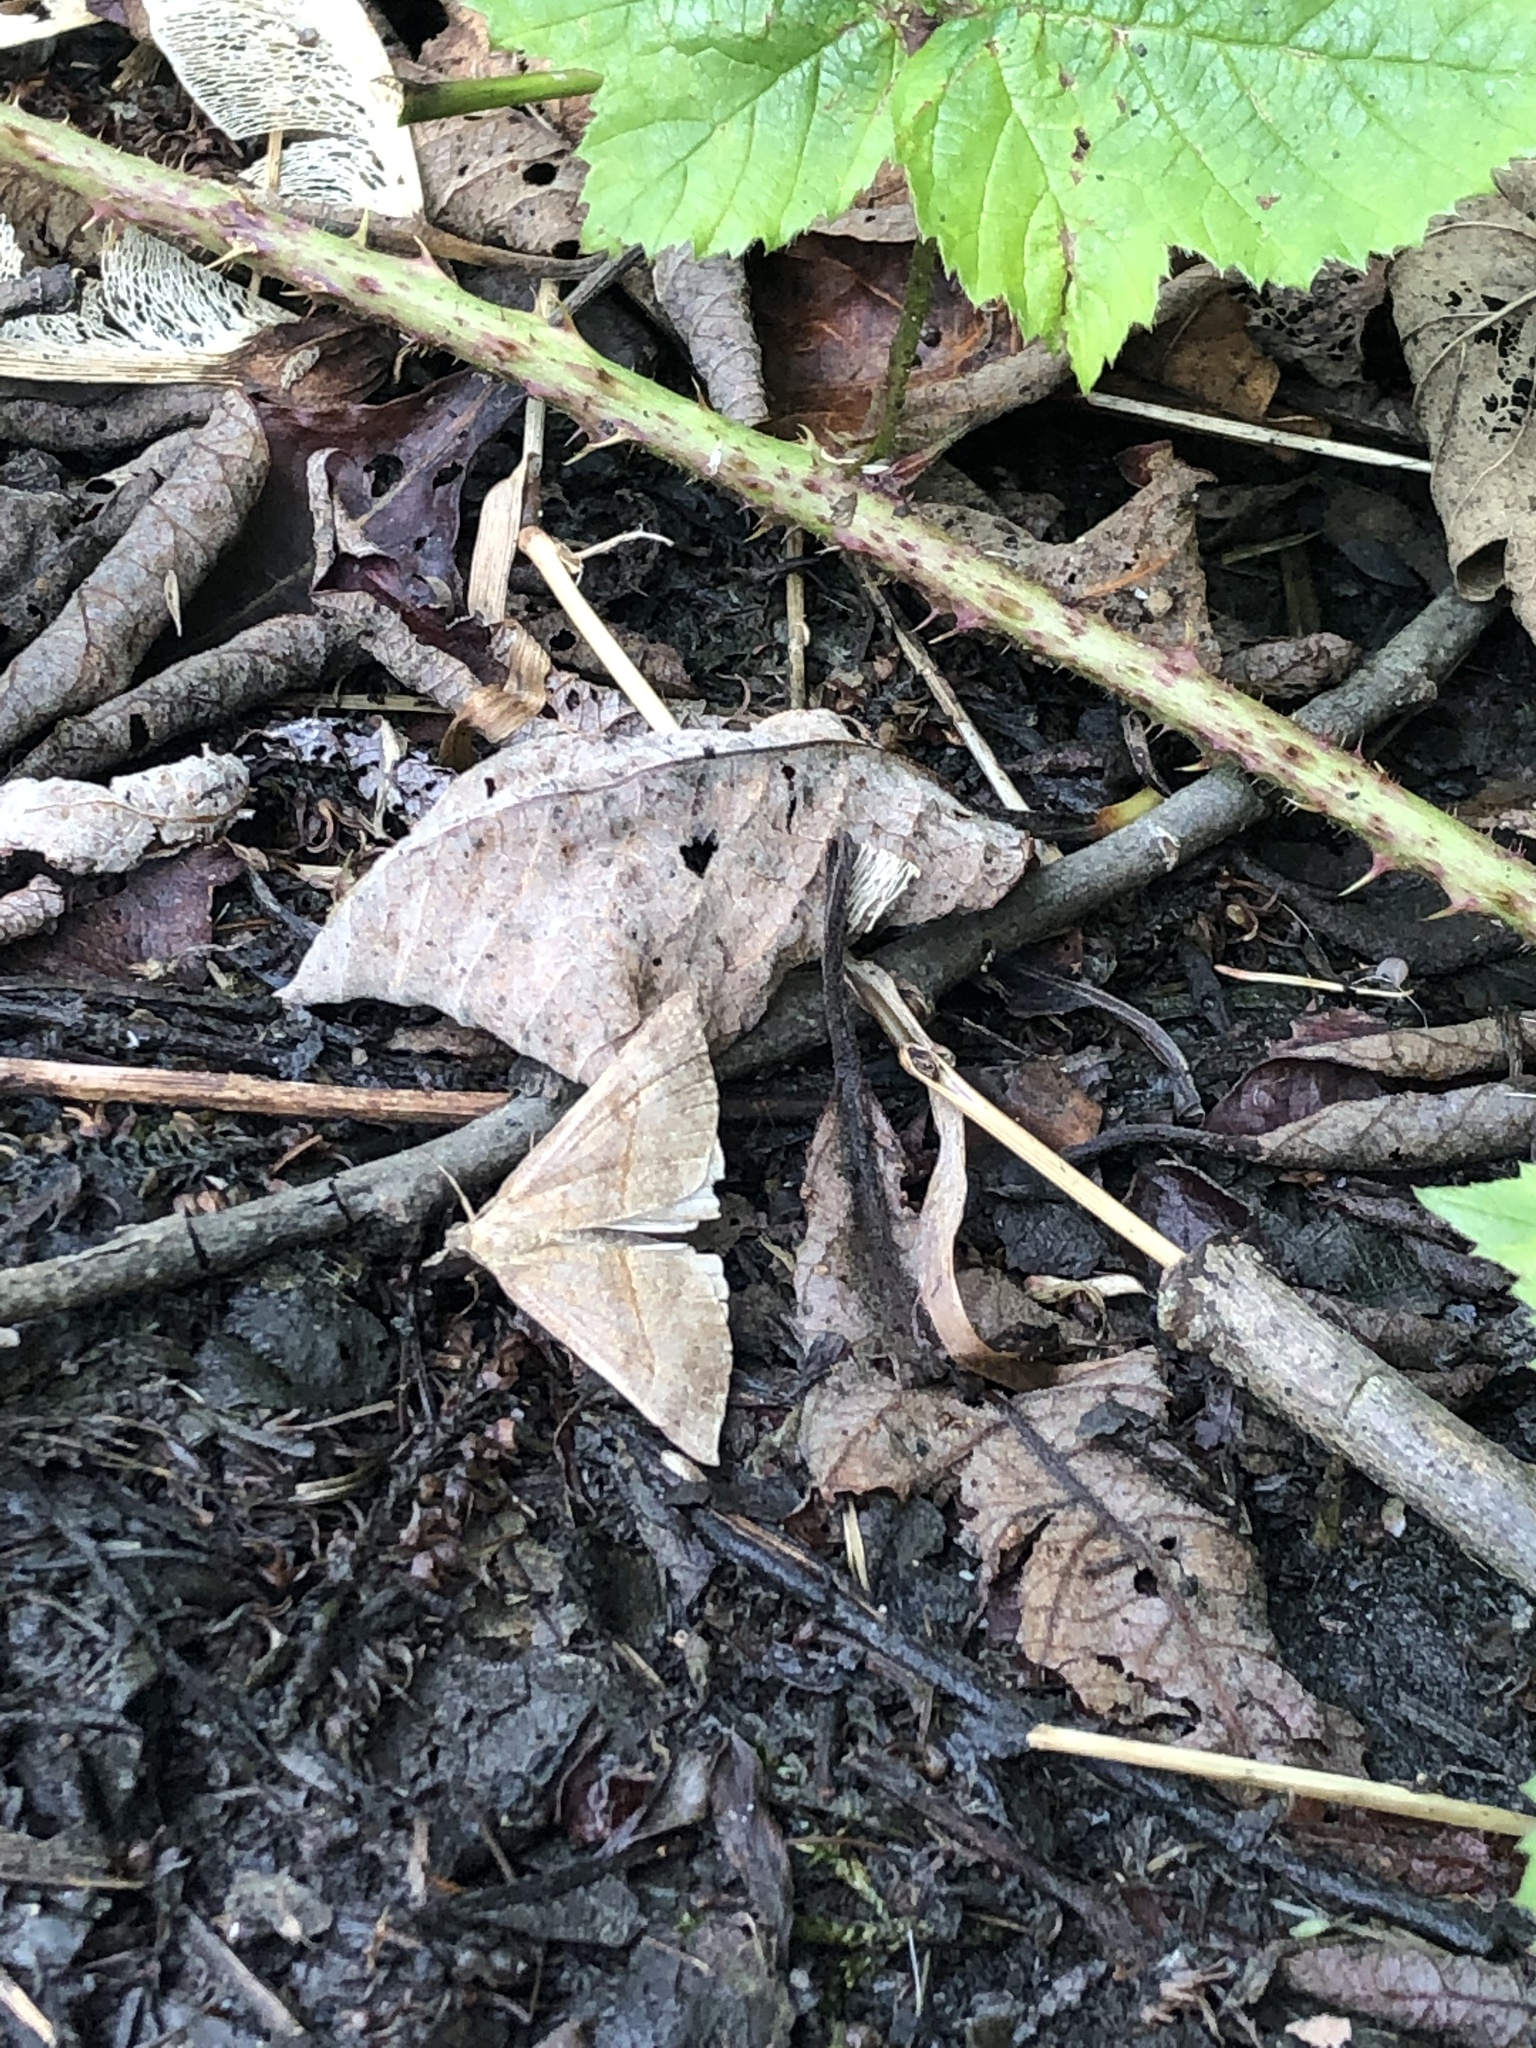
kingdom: Animalia
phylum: Arthropoda
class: Insecta
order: Lepidoptera
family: Erebidae
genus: Hypena
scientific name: Hypena proboscidalis
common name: Snout
